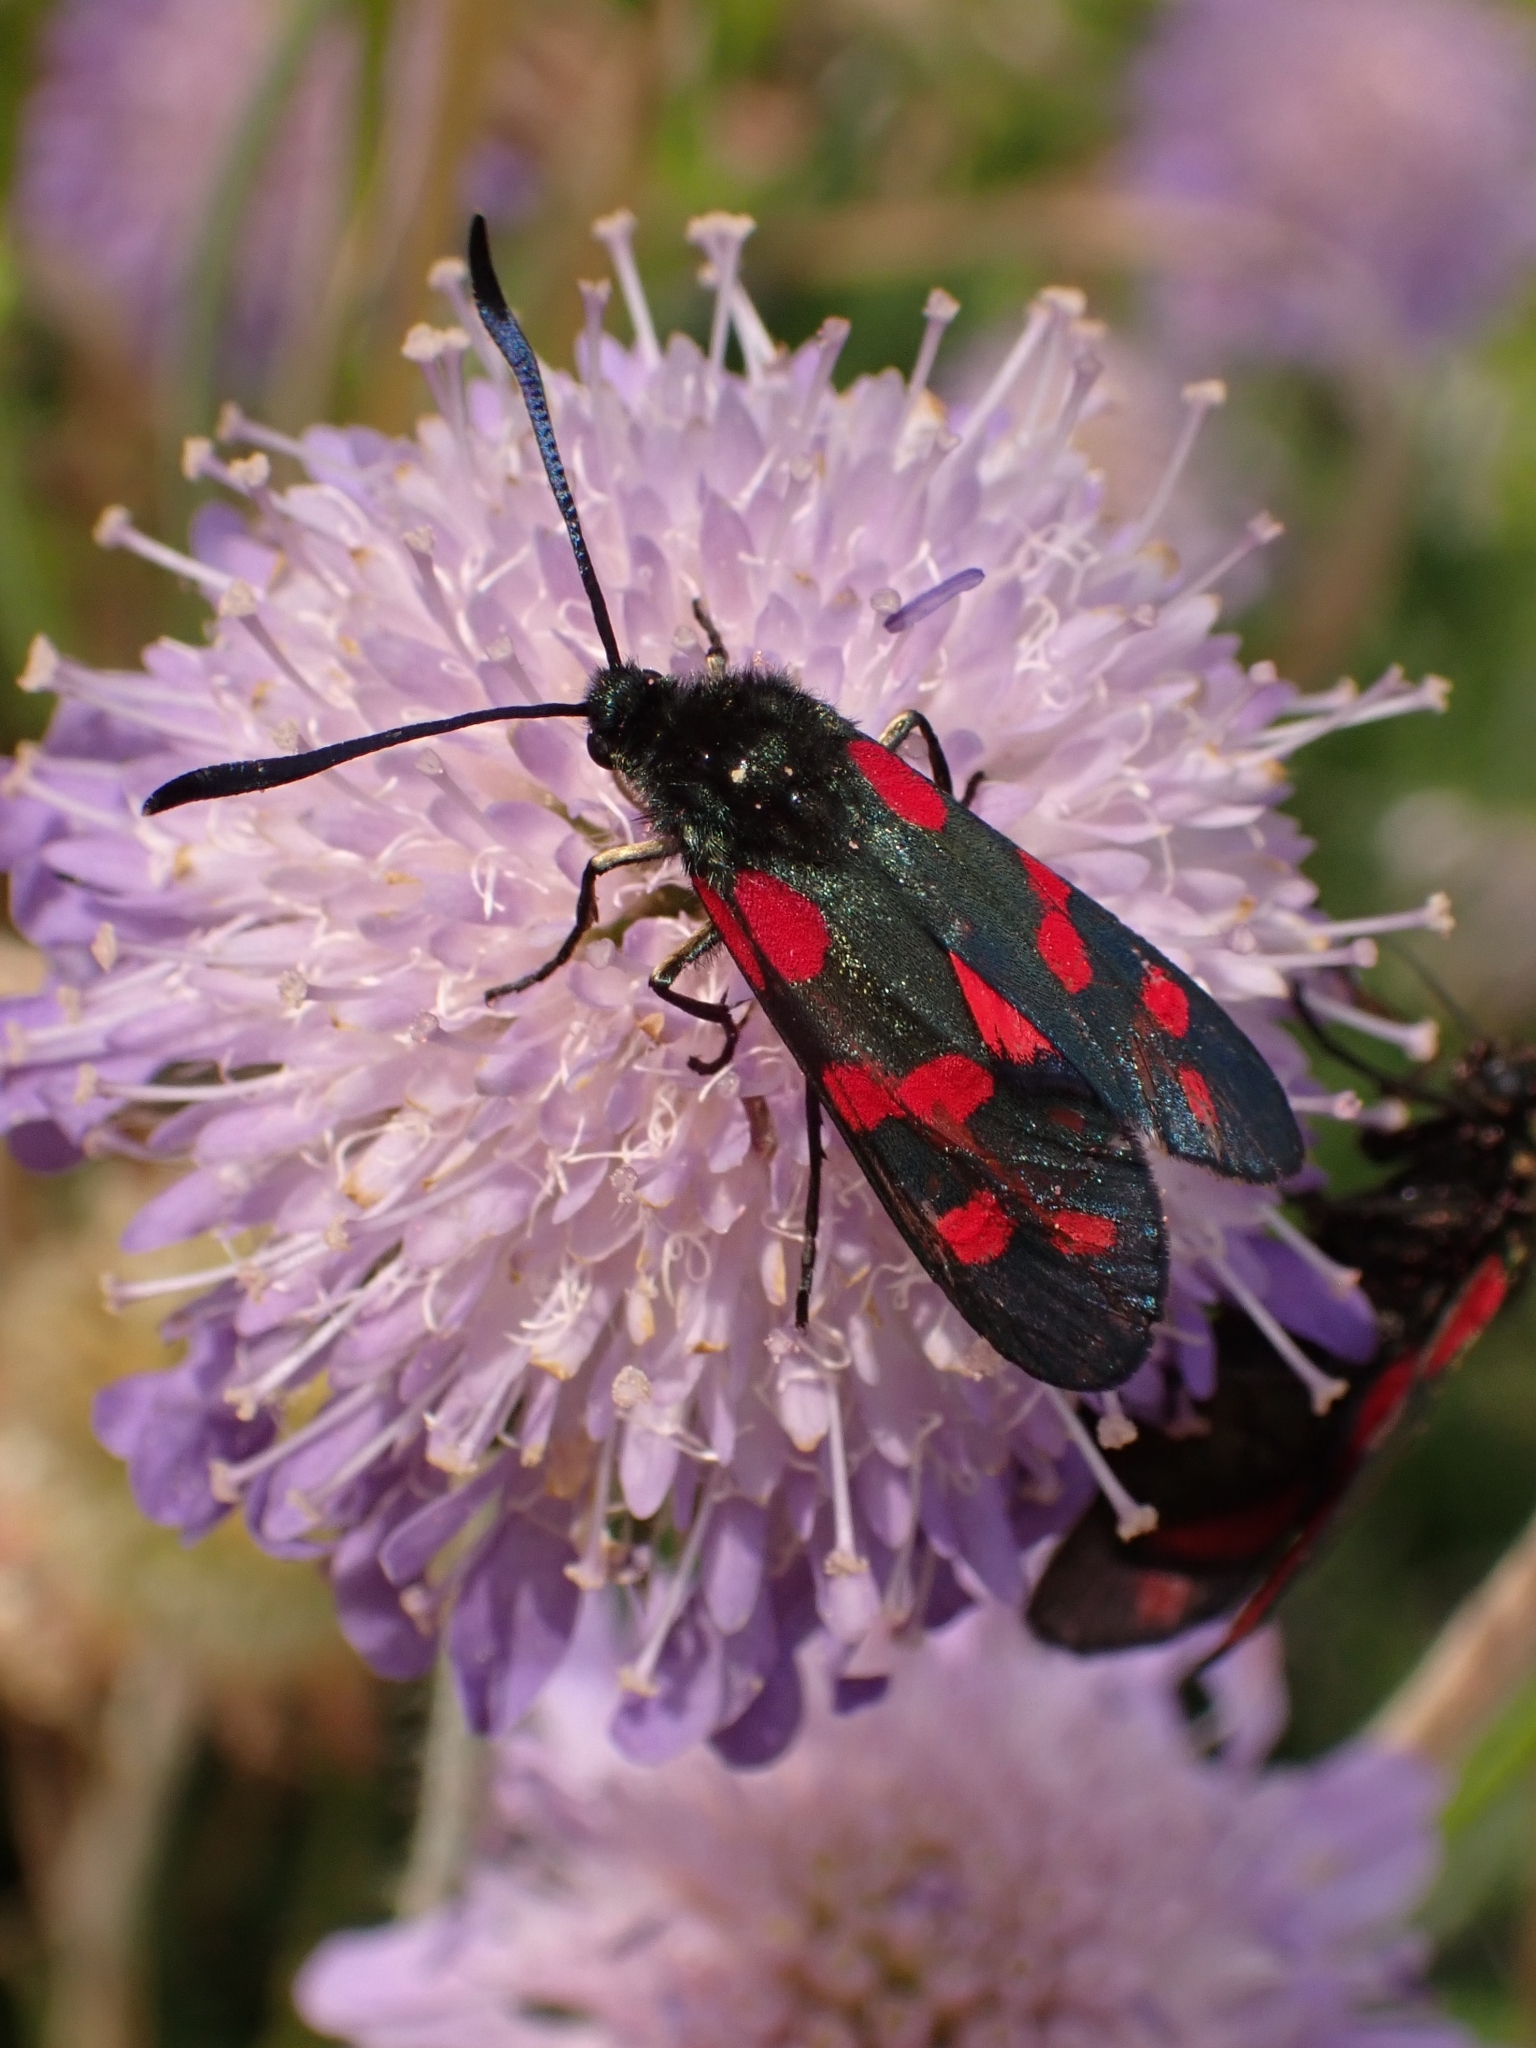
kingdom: Animalia
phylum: Arthropoda
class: Insecta
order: Lepidoptera
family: Zygaenidae
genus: Zygaena
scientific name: Zygaena filipendulae
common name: Six-spot burnet
